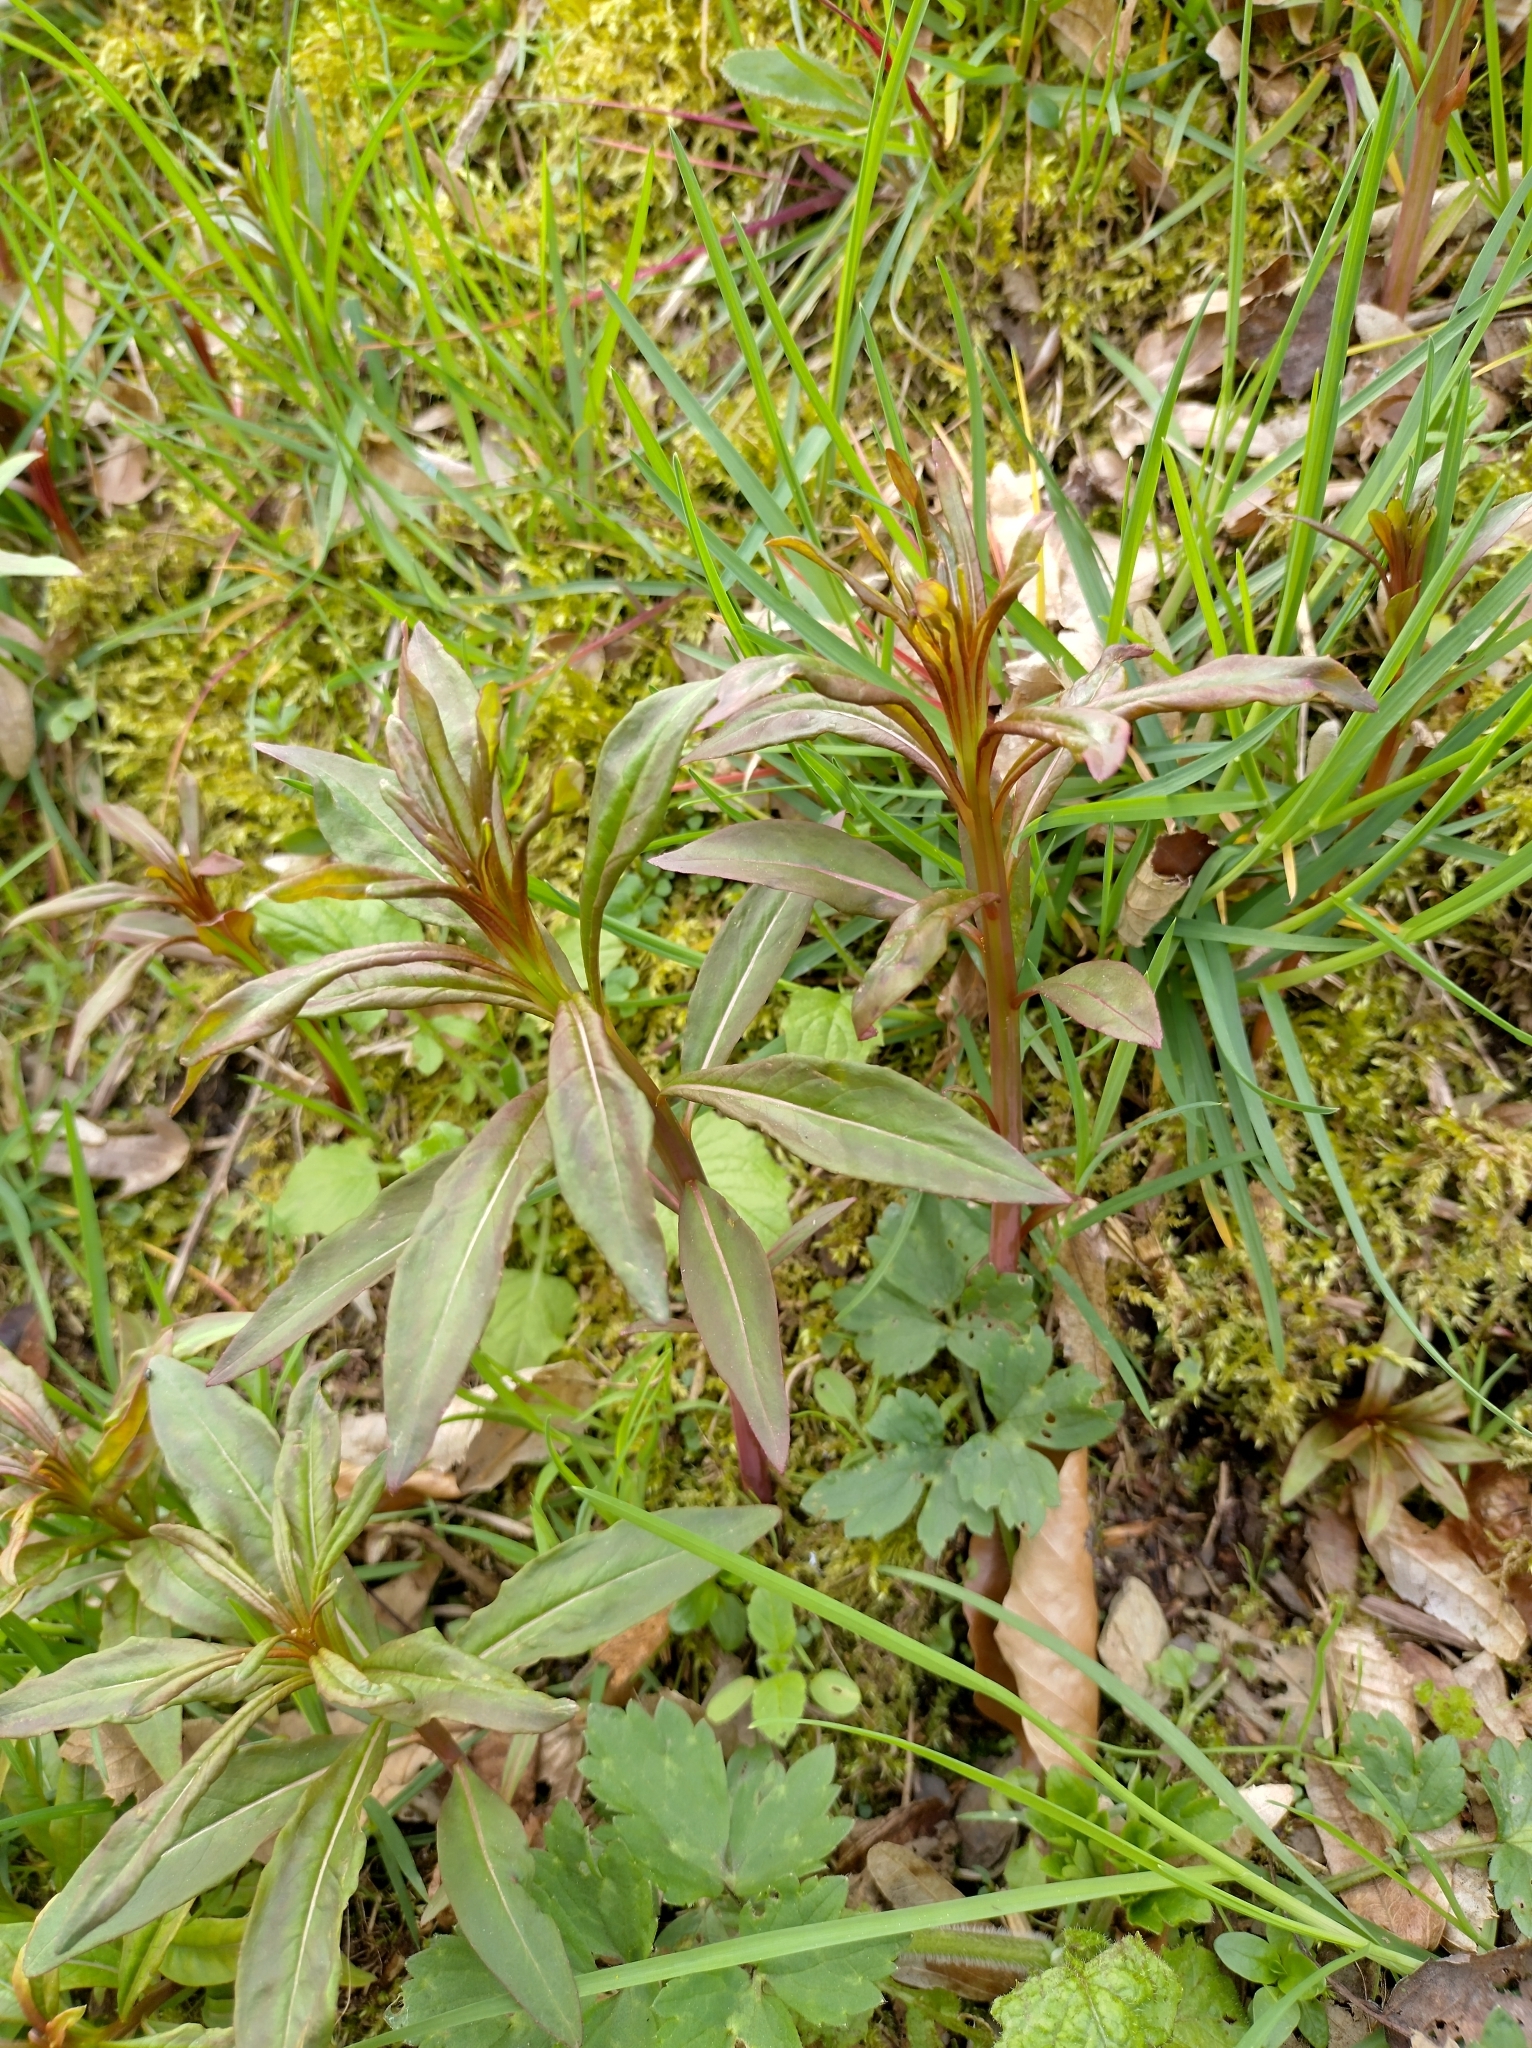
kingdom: Plantae
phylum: Tracheophyta
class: Magnoliopsida
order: Myrtales
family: Onagraceae
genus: Chamaenerion
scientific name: Chamaenerion angustifolium
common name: Fireweed
